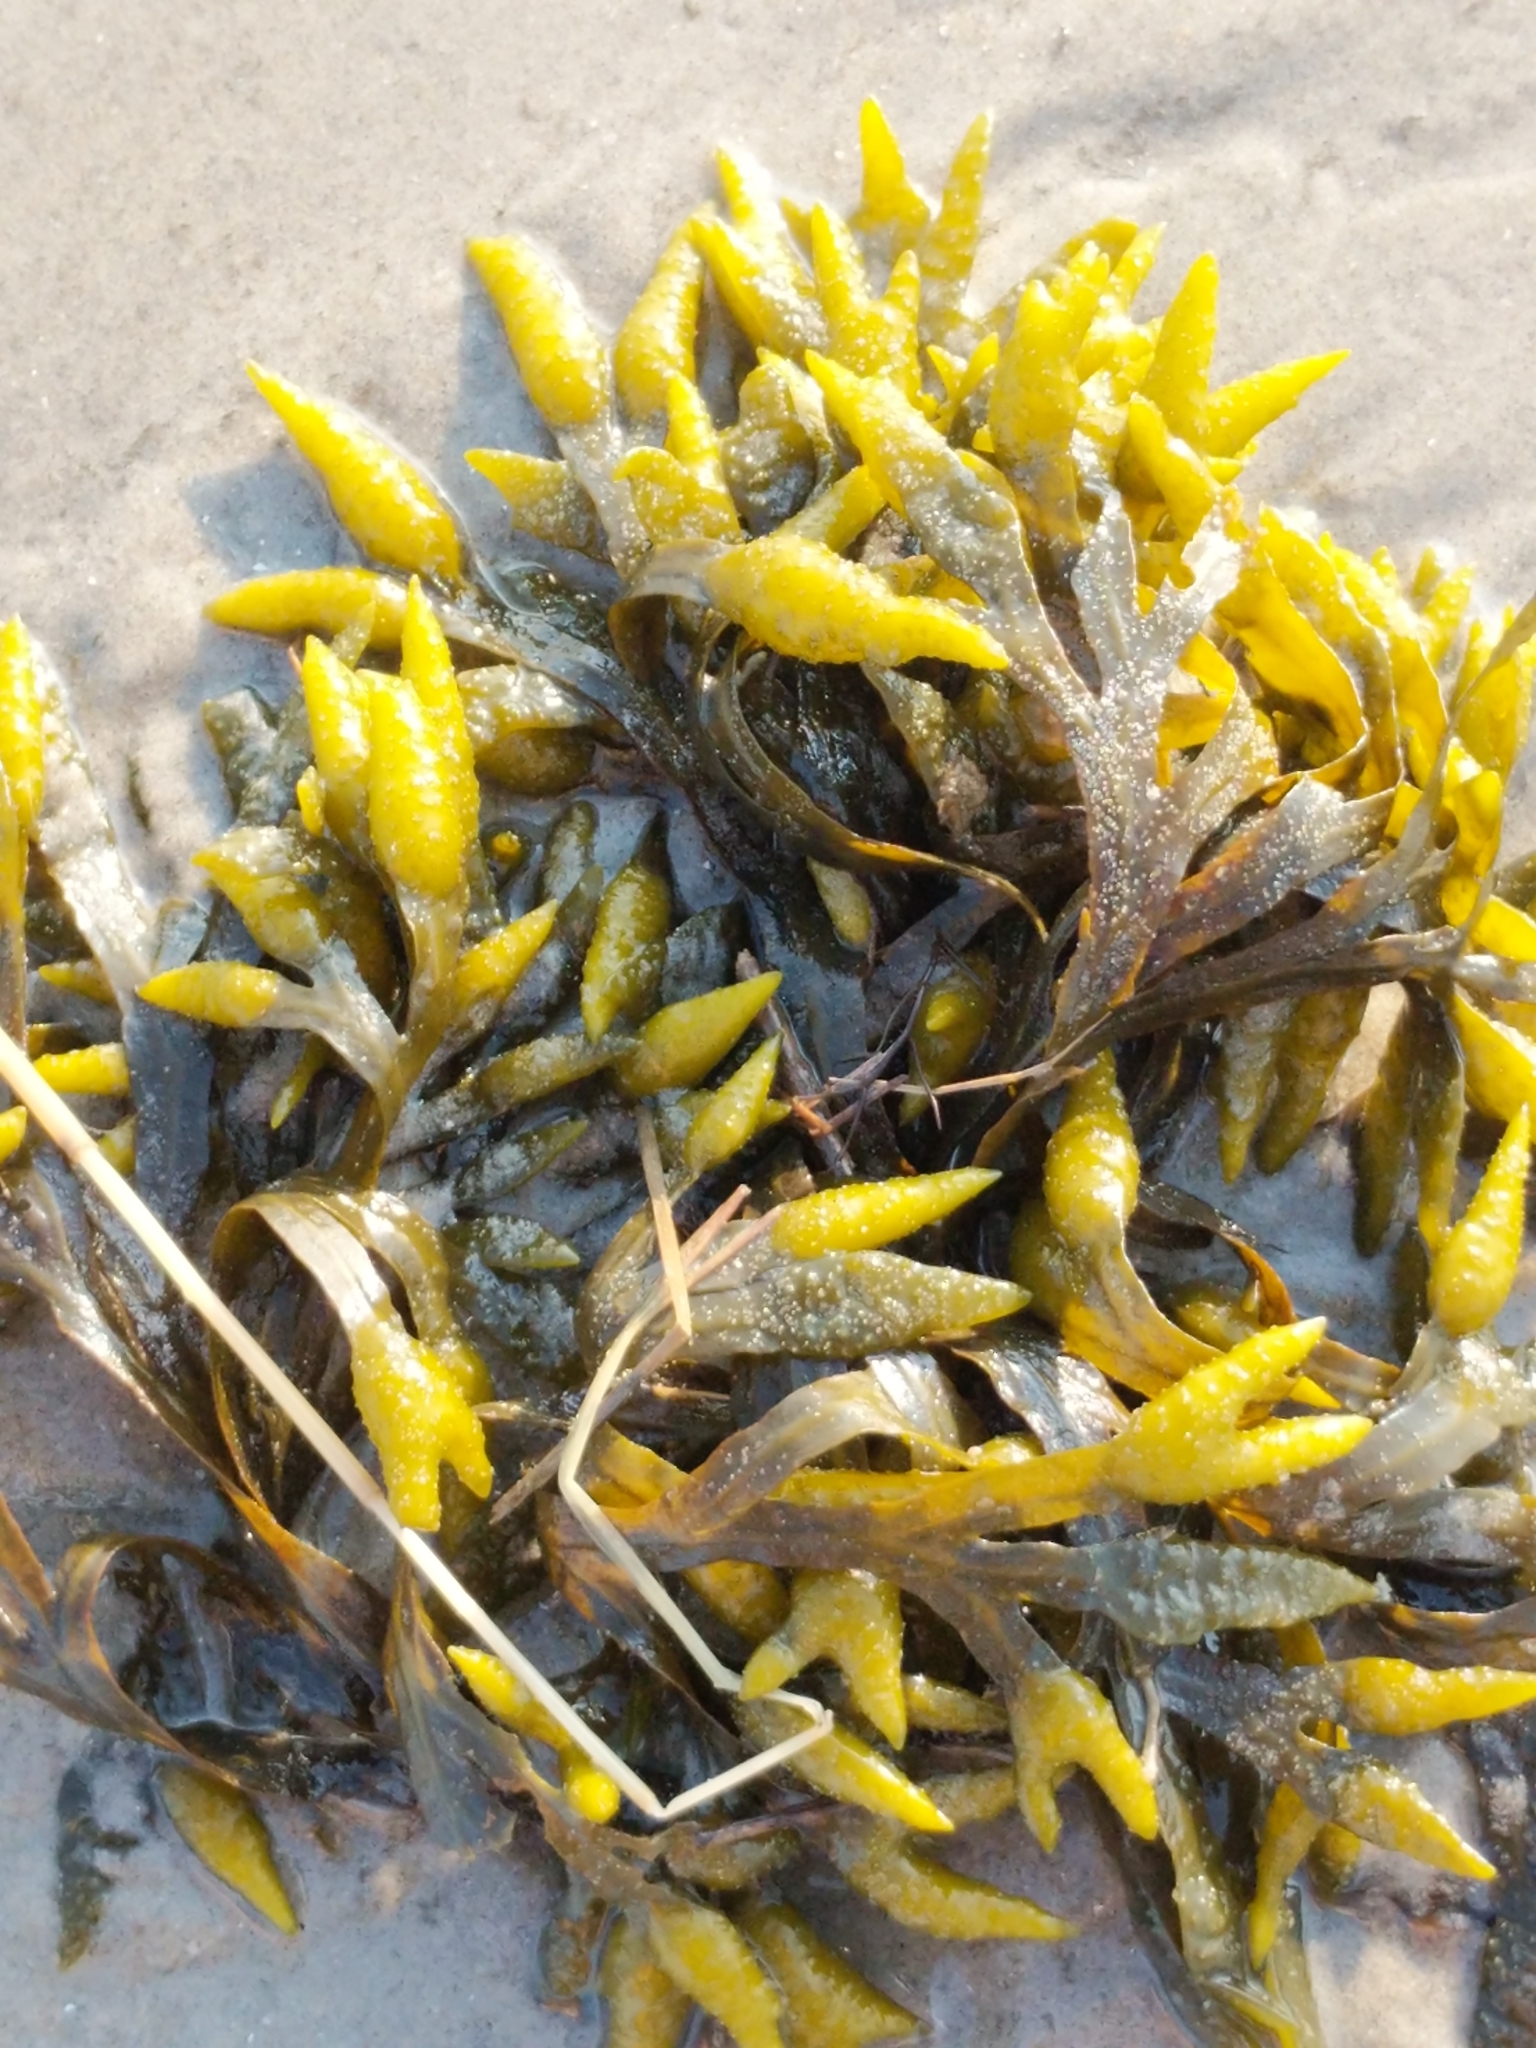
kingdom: Chromista
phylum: Ochrophyta
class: Phaeophyceae
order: Fucales
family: Fucaceae
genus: Fucus
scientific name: Fucus distichus
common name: Rockweed
